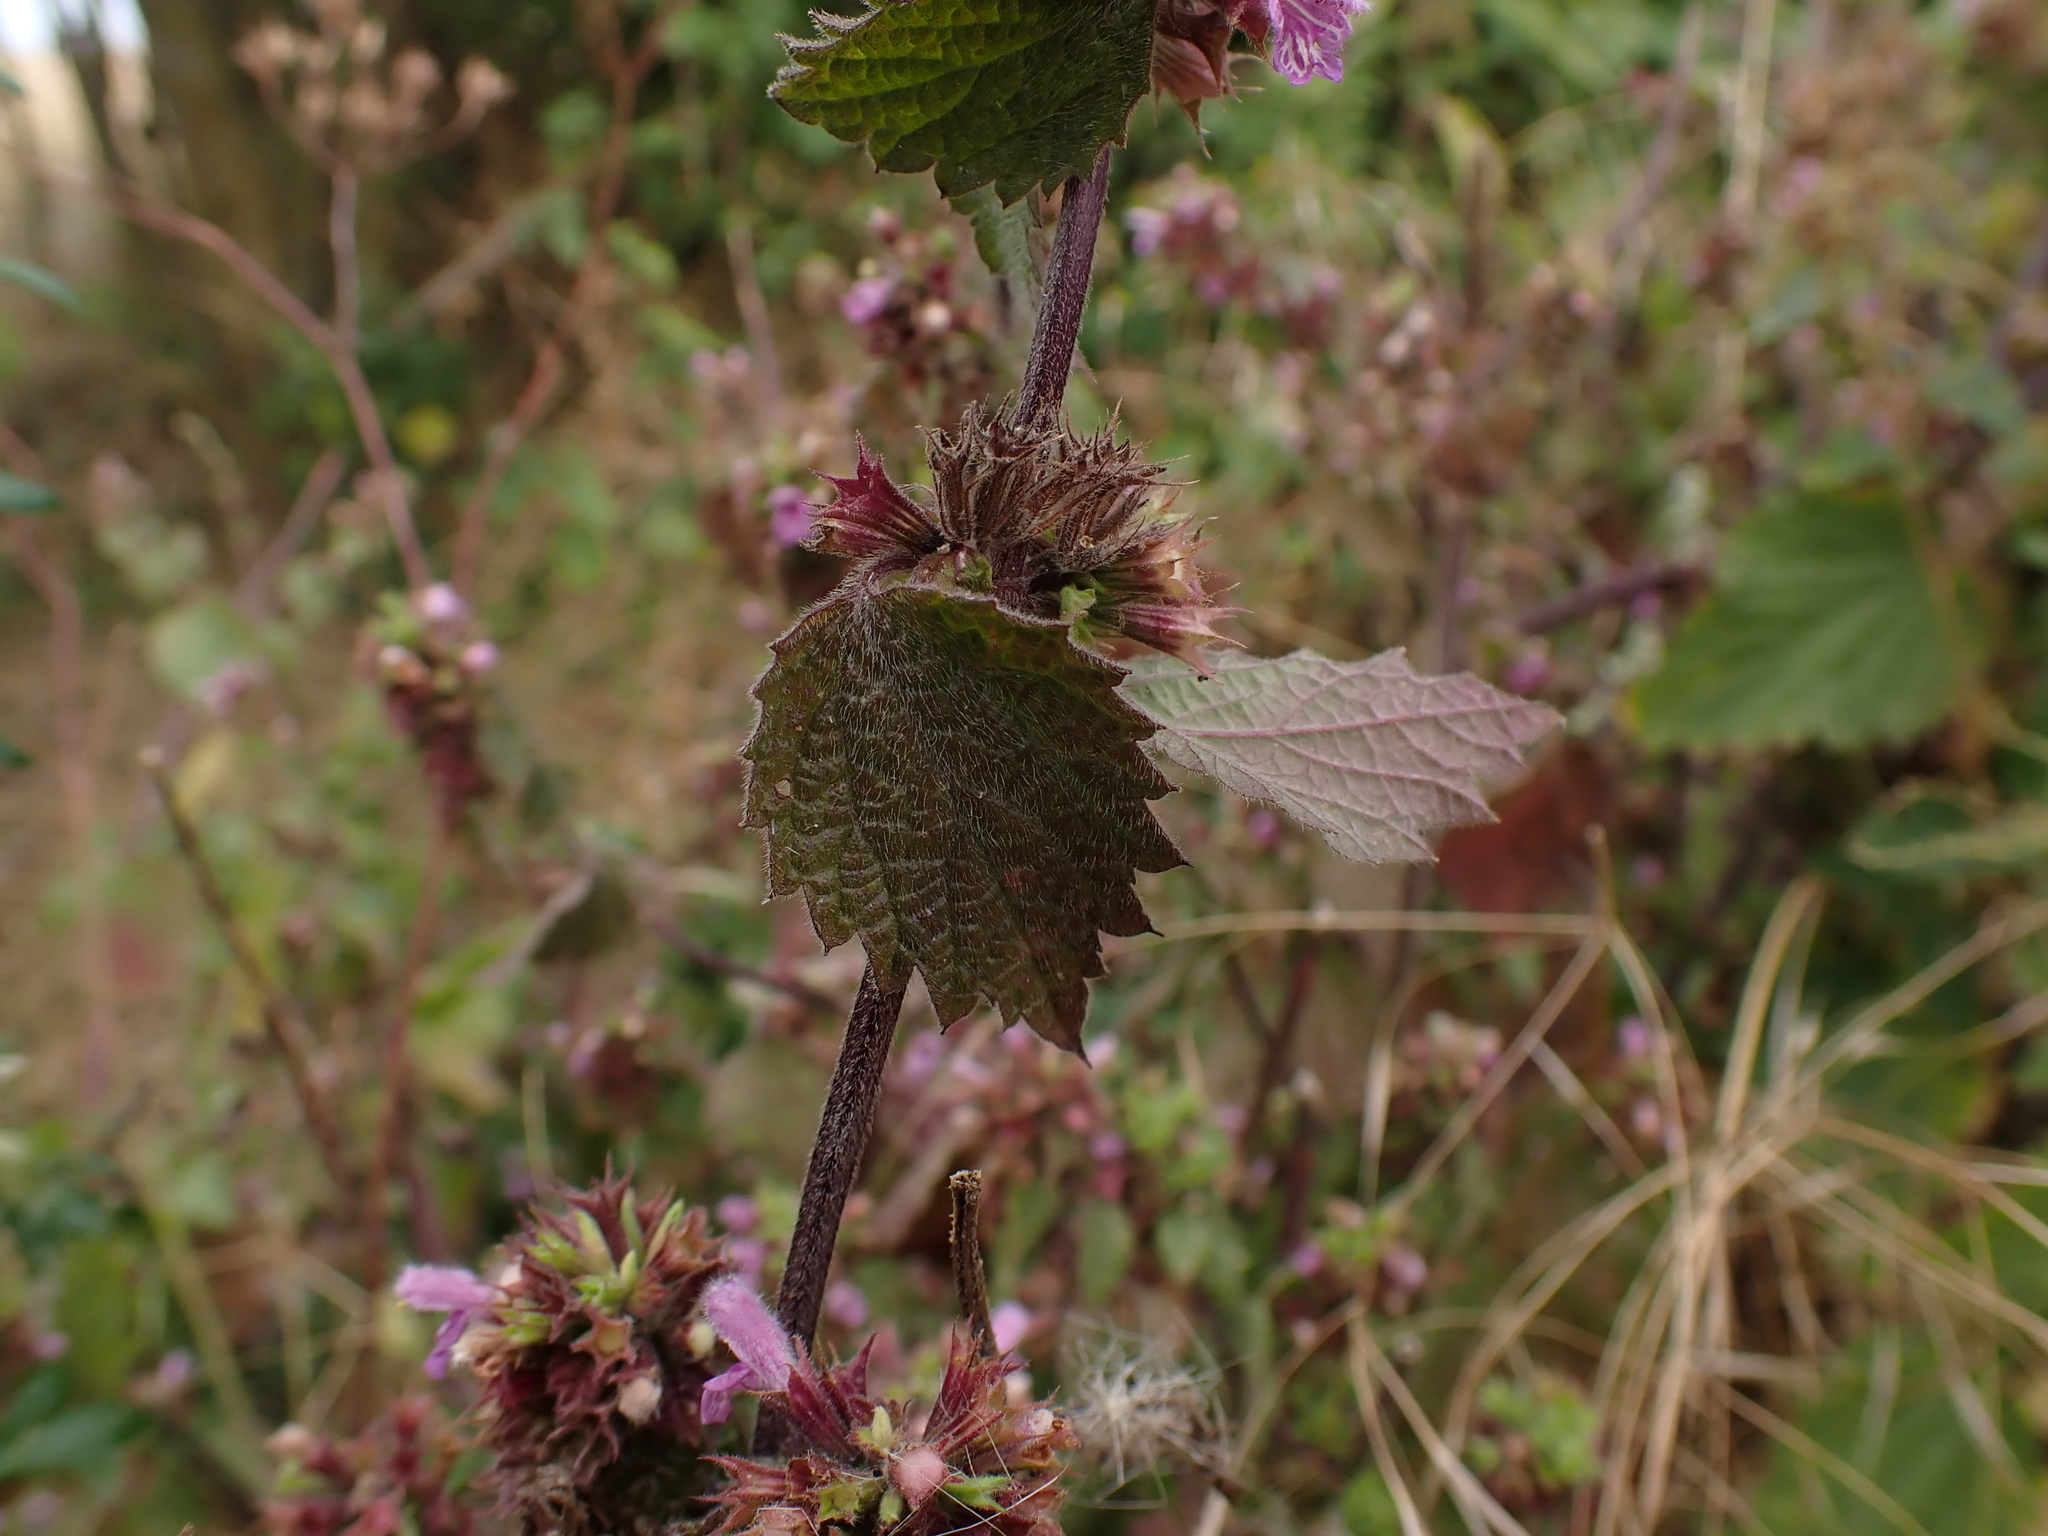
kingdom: Plantae
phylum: Tracheophyta
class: Magnoliopsida
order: Lamiales
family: Lamiaceae
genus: Ballota
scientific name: Ballota nigra
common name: Black horehound
